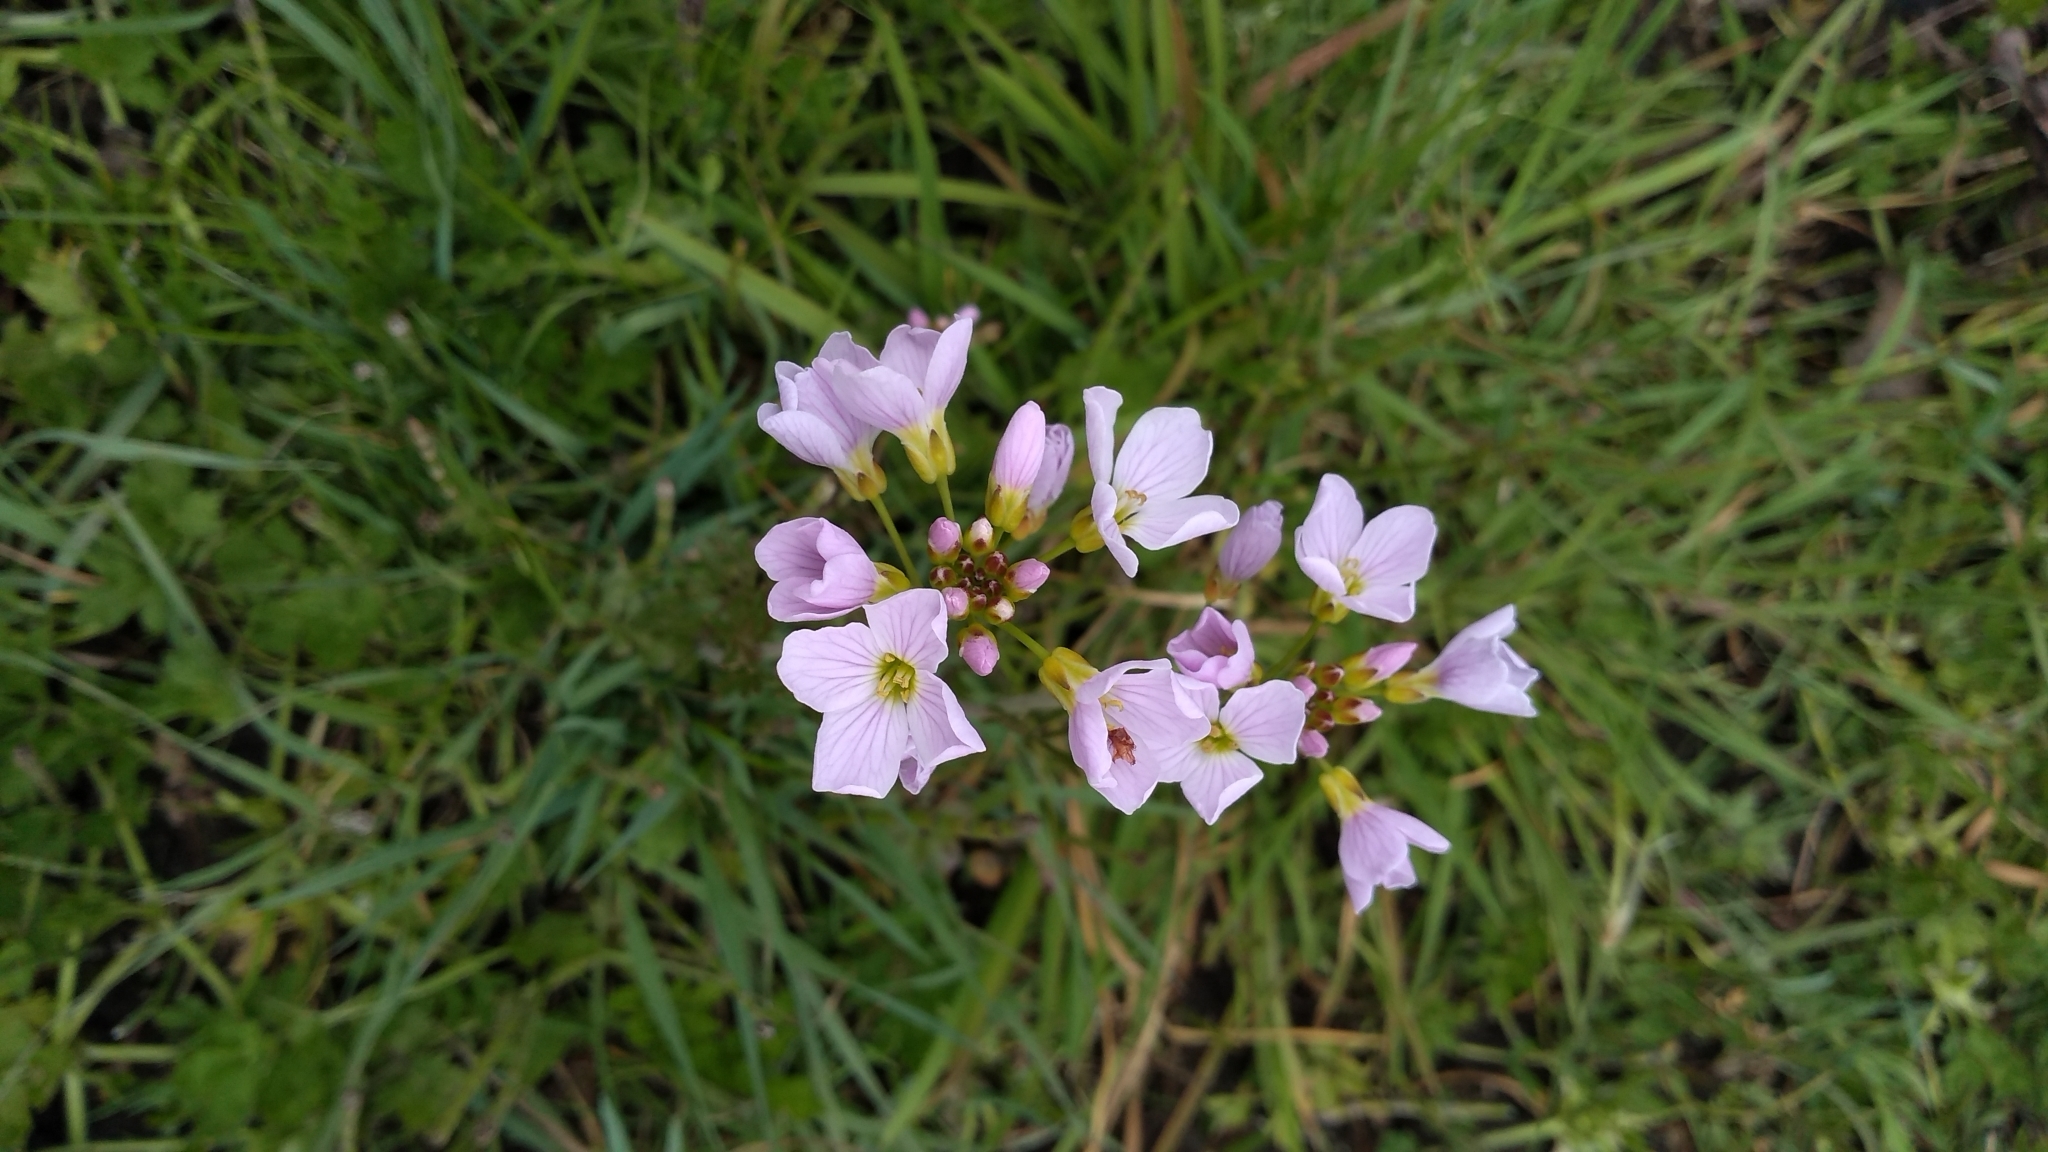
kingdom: Plantae
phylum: Tracheophyta
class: Magnoliopsida
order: Brassicales
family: Brassicaceae
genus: Cardamine
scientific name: Cardamine pratensis
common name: Cuckoo flower
